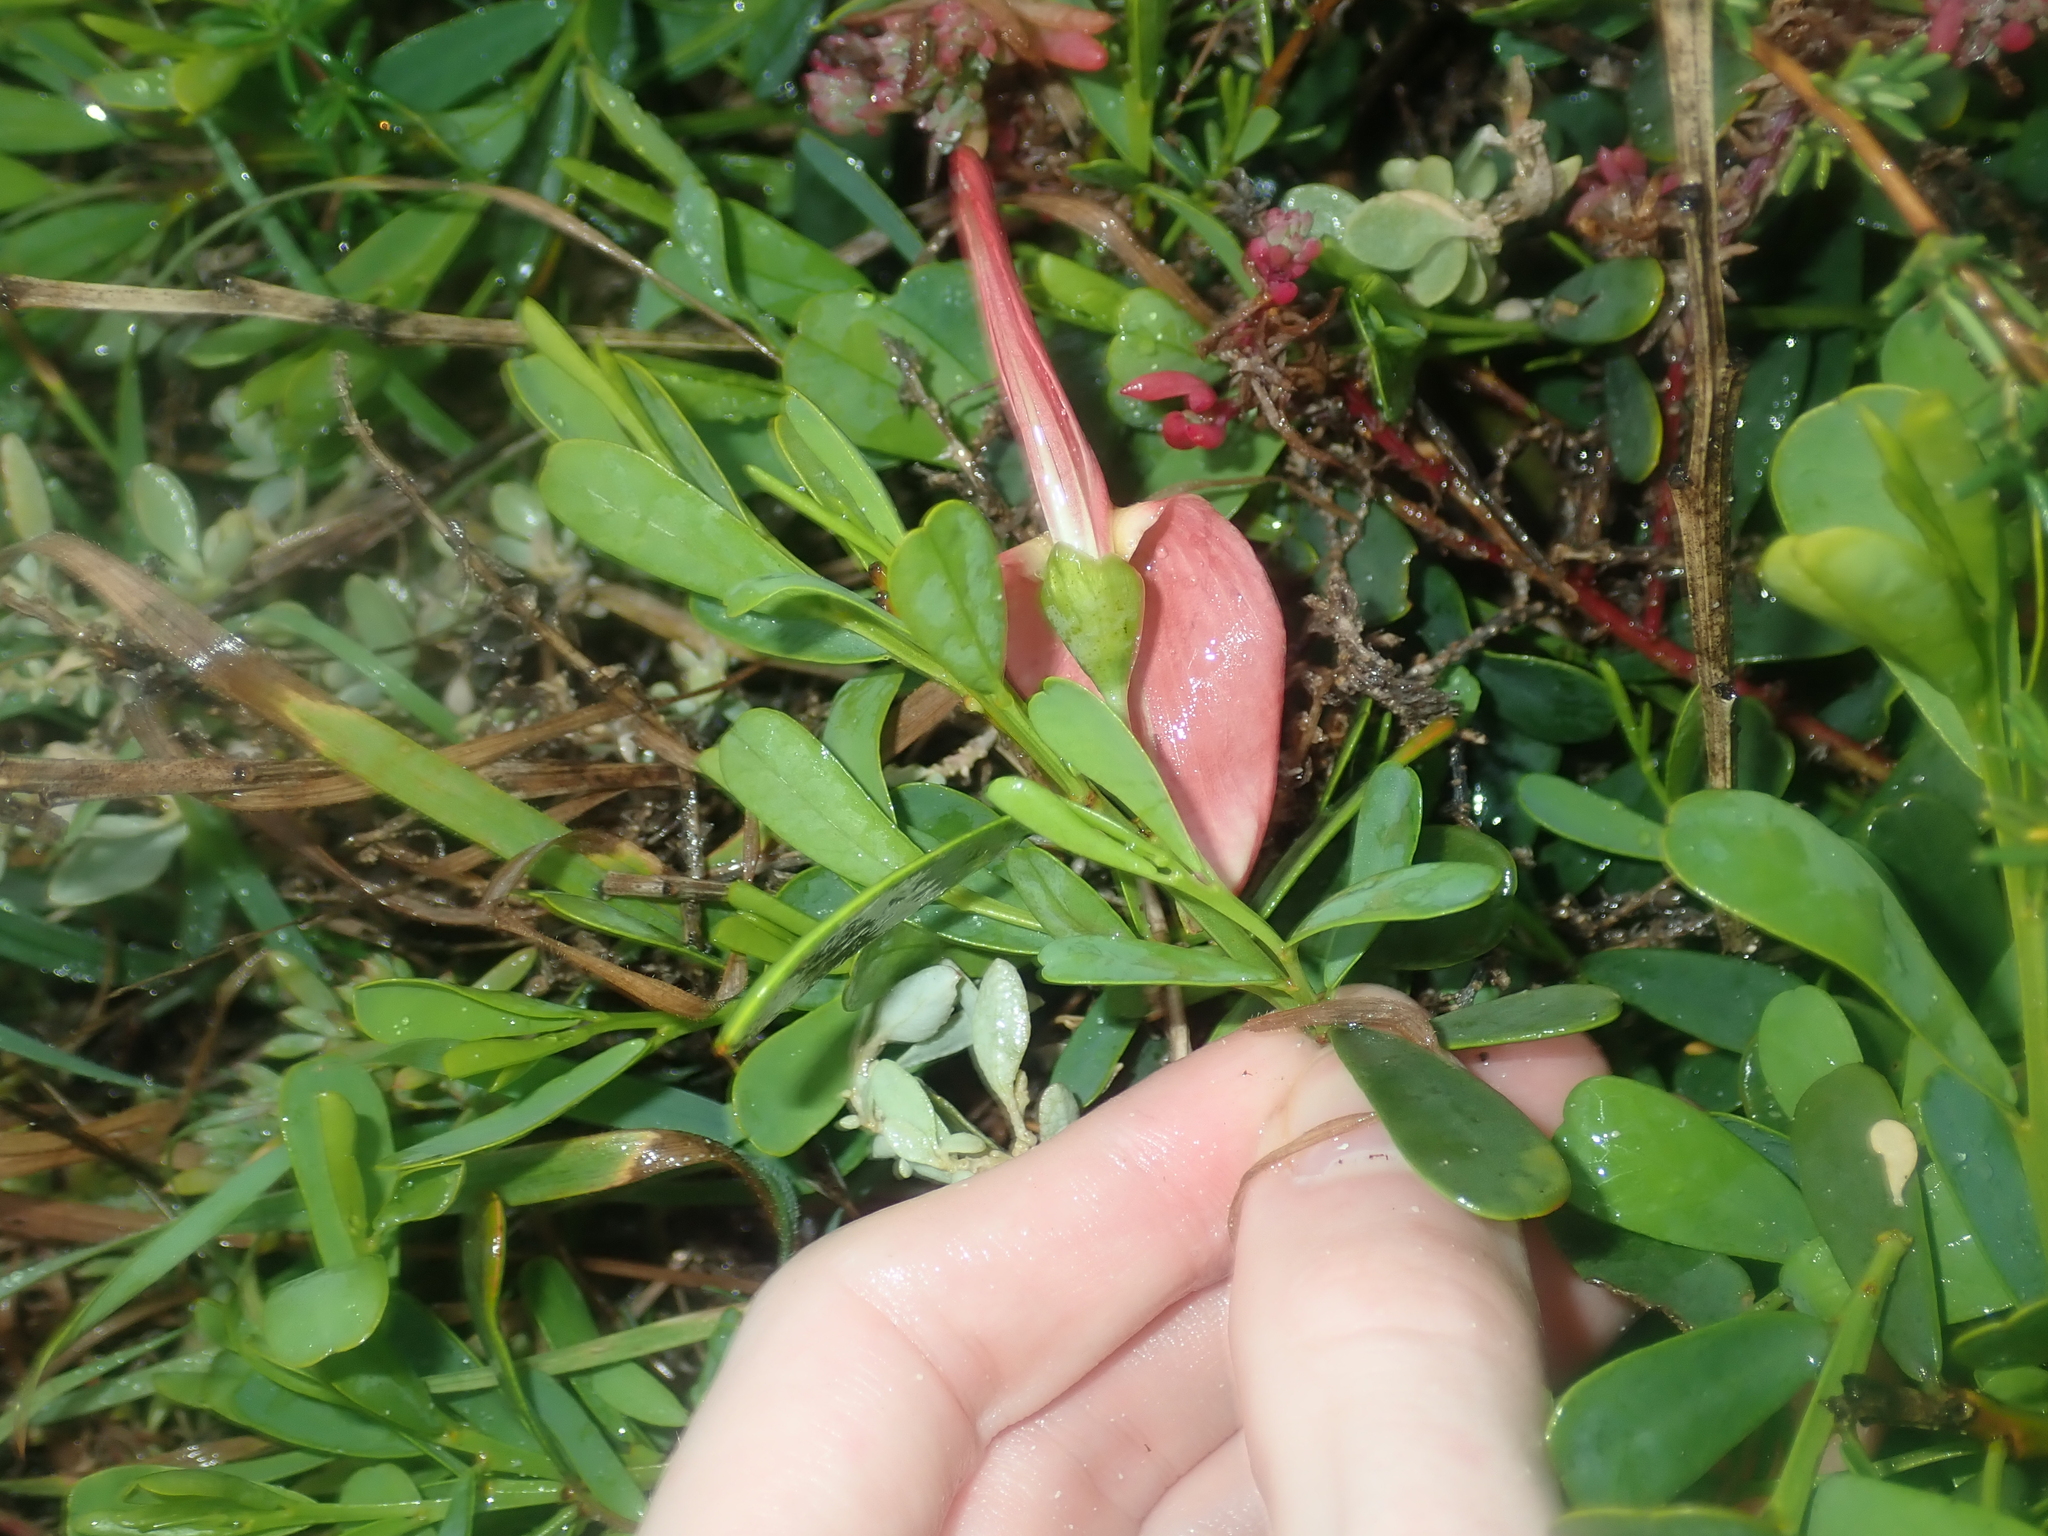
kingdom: Plantae
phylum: Tracheophyta
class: Magnoliopsida
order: Fabales
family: Fabaceae
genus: Templetonia
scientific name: Templetonia retusa
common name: Cockies'-tongue
